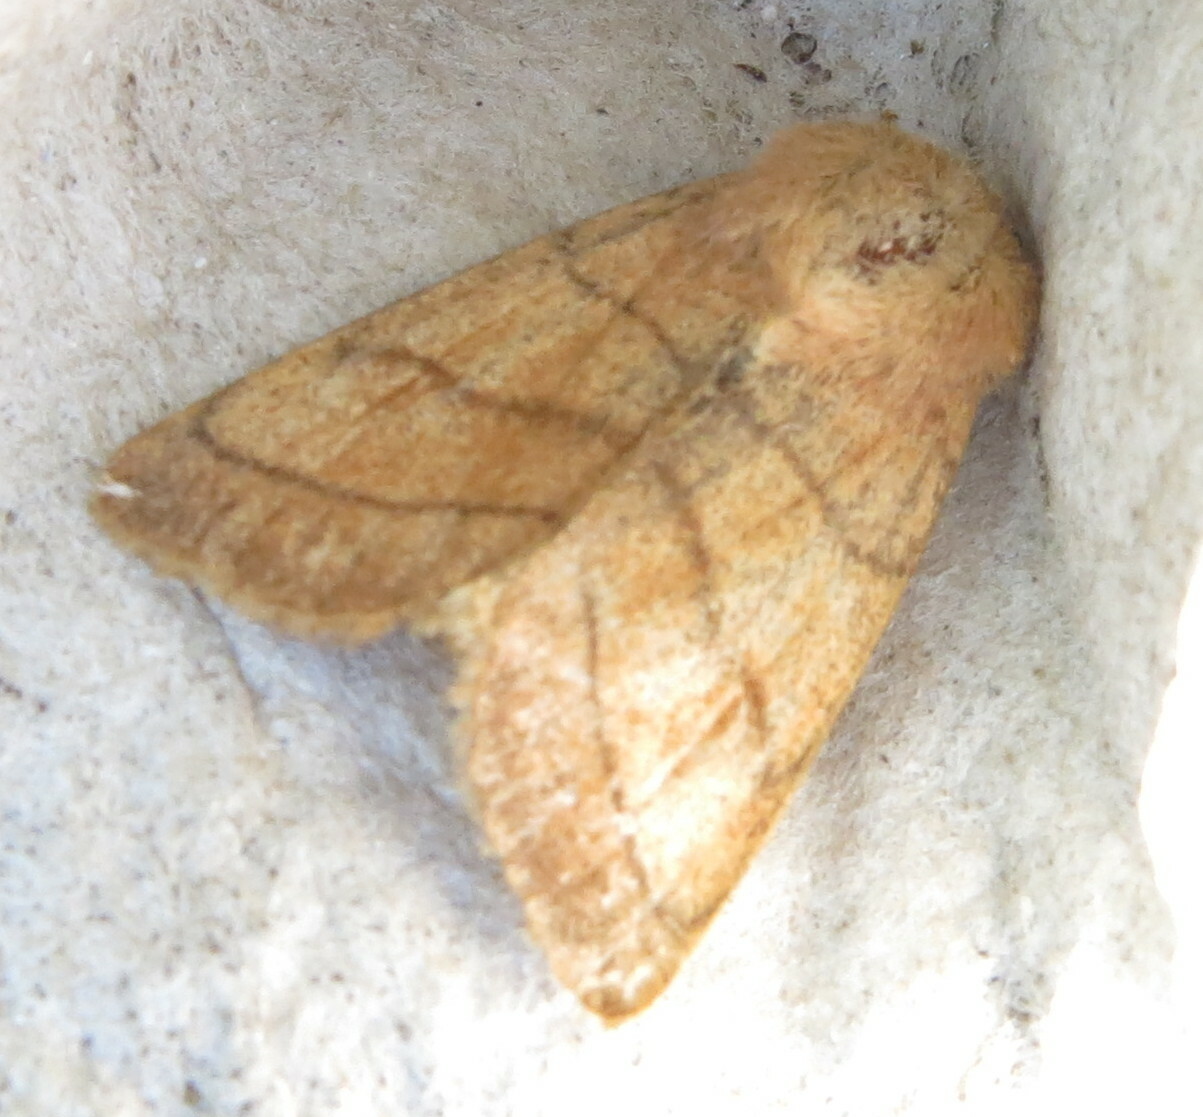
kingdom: Animalia
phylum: Arthropoda
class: Insecta
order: Lepidoptera
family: Noctuidae
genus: Charanyca
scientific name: Charanyca trigrammica
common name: Treble lines
